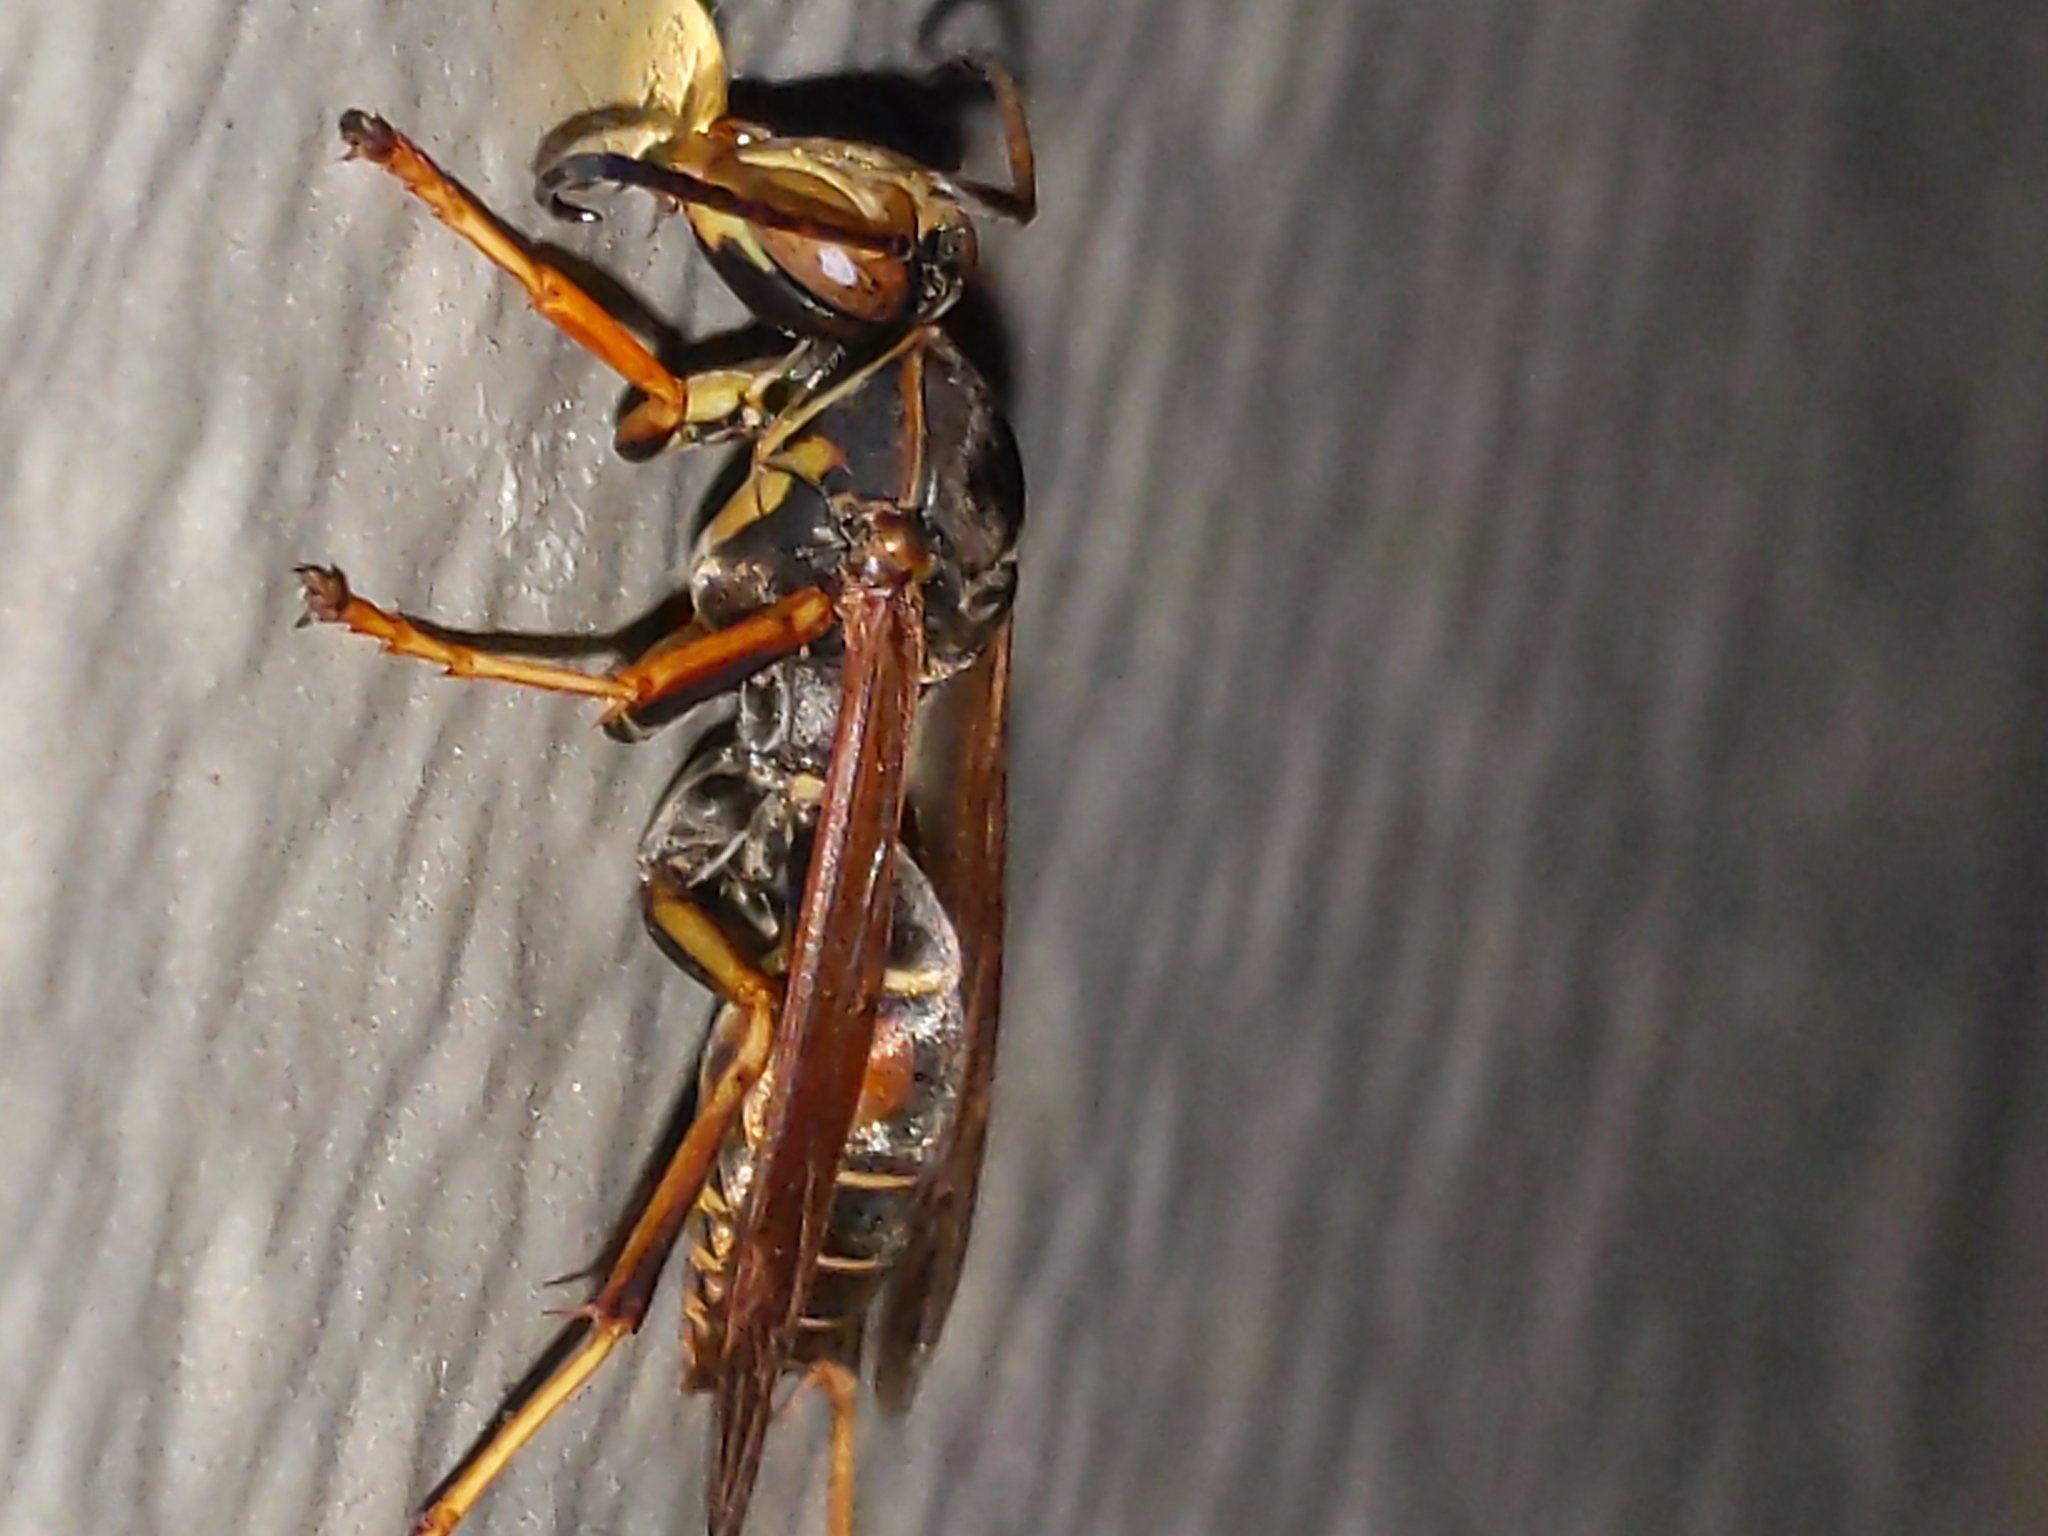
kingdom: Animalia
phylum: Arthropoda
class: Insecta
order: Hymenoptera
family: Eumenidae
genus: Polistes
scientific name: Polistes fuscatus
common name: Dark paper wasp
